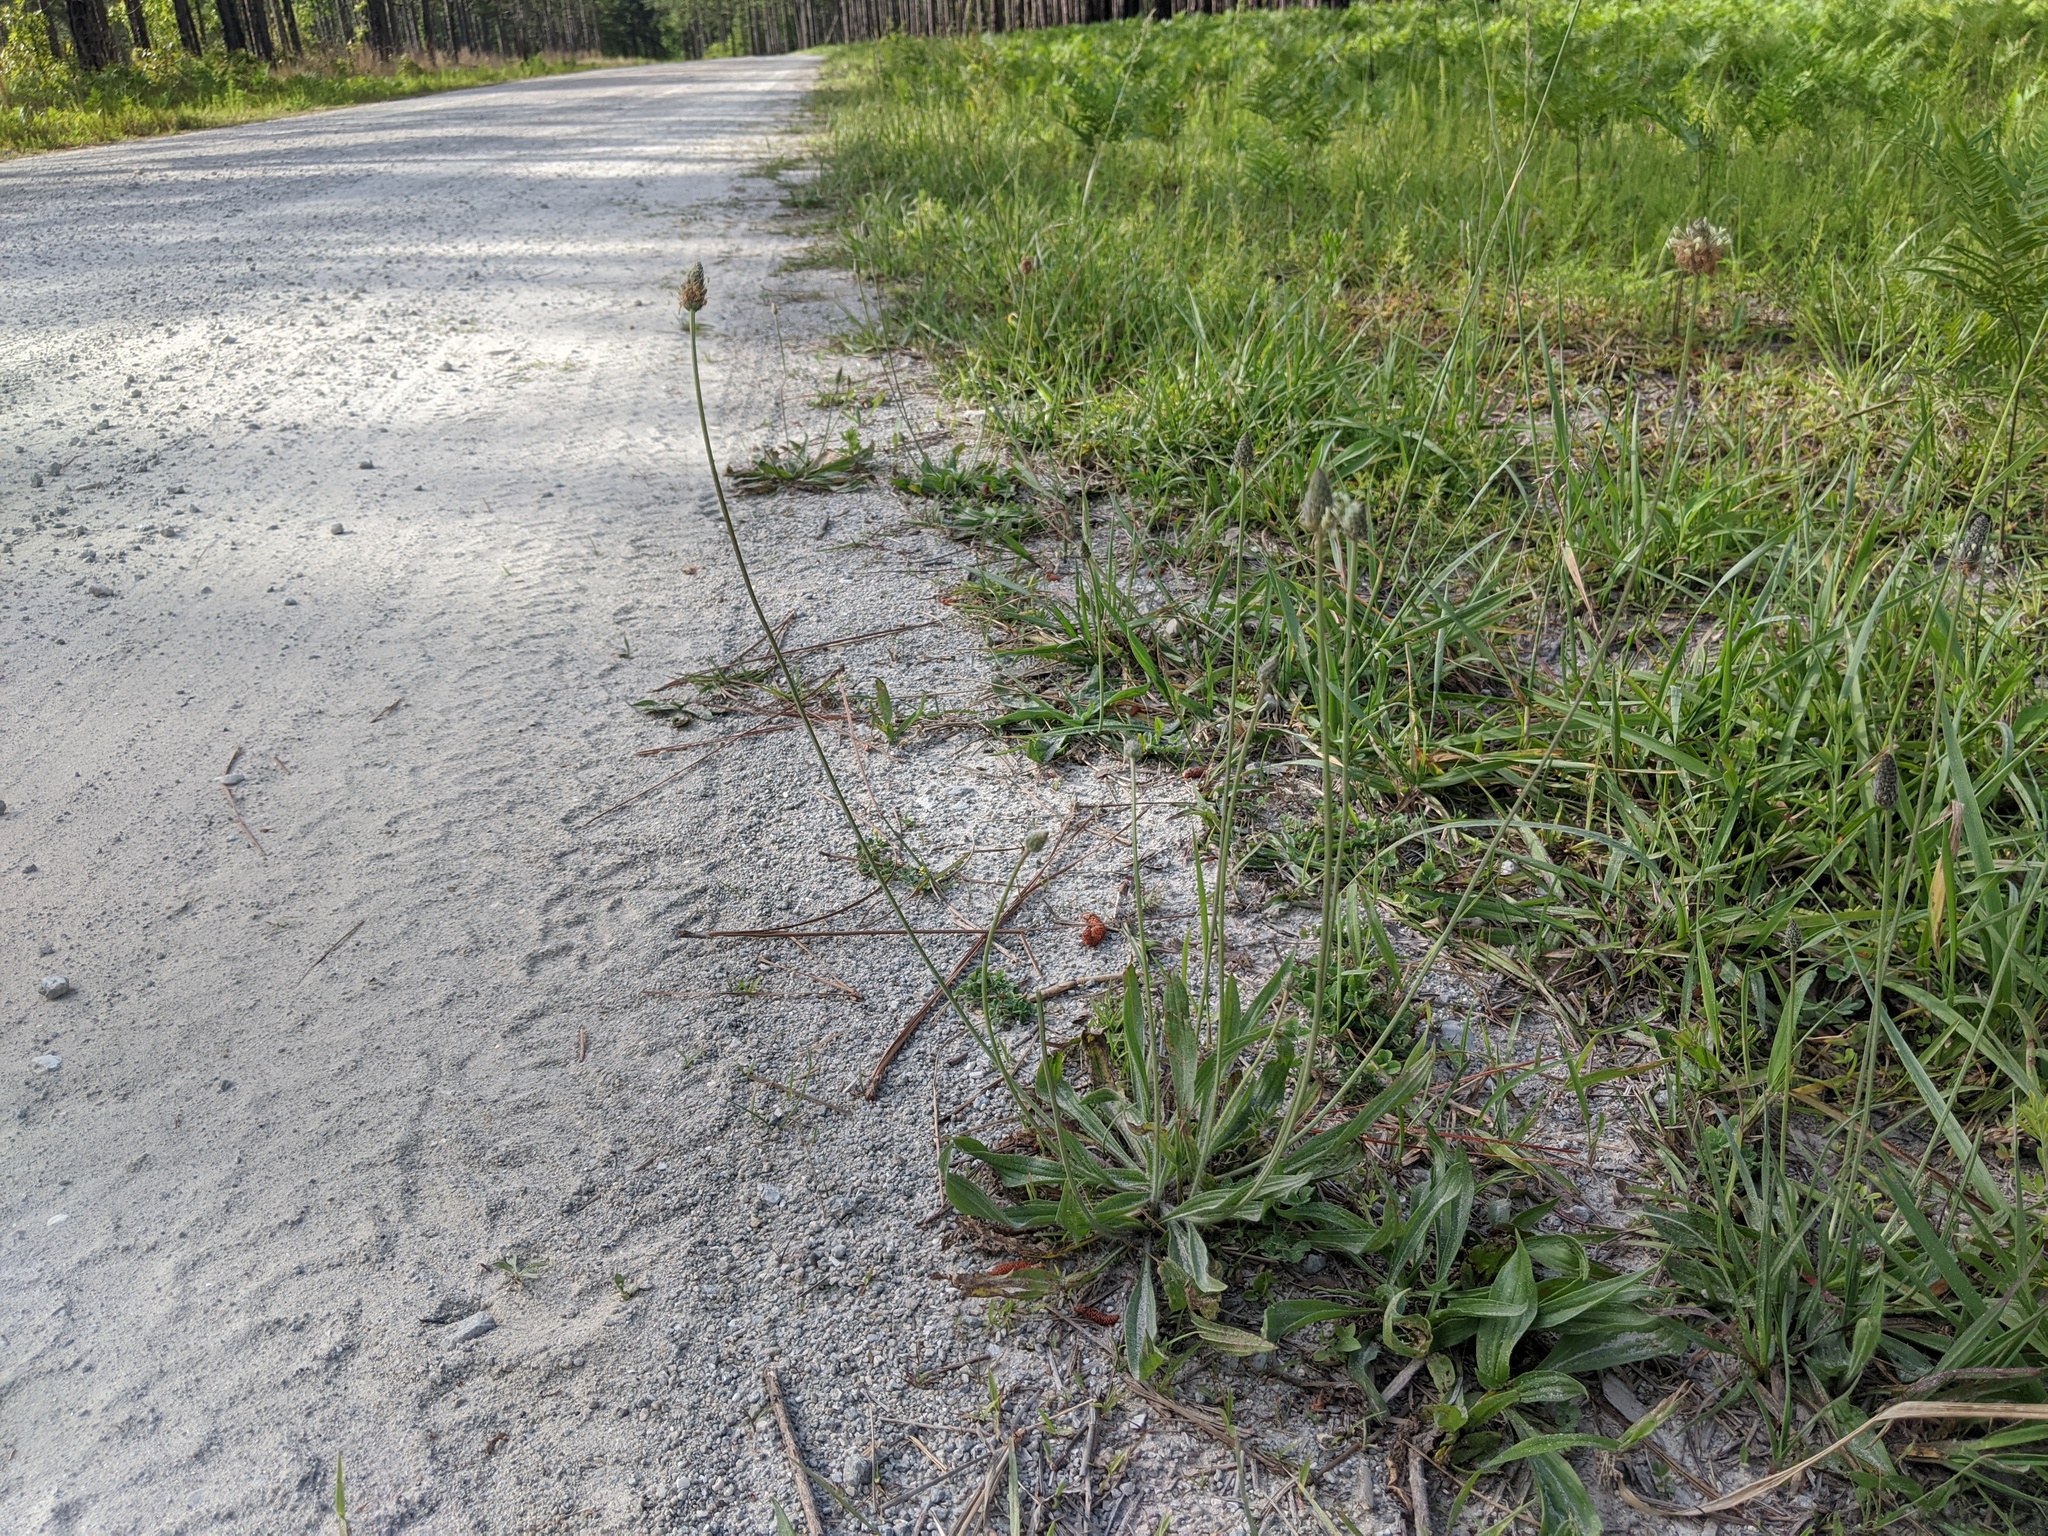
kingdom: Plantae
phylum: Tracheophyta
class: Magnoliopsida
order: Lamiales
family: Plantaginaceae
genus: Plantago
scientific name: Plantago lanceolata
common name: Ribwort plantain
